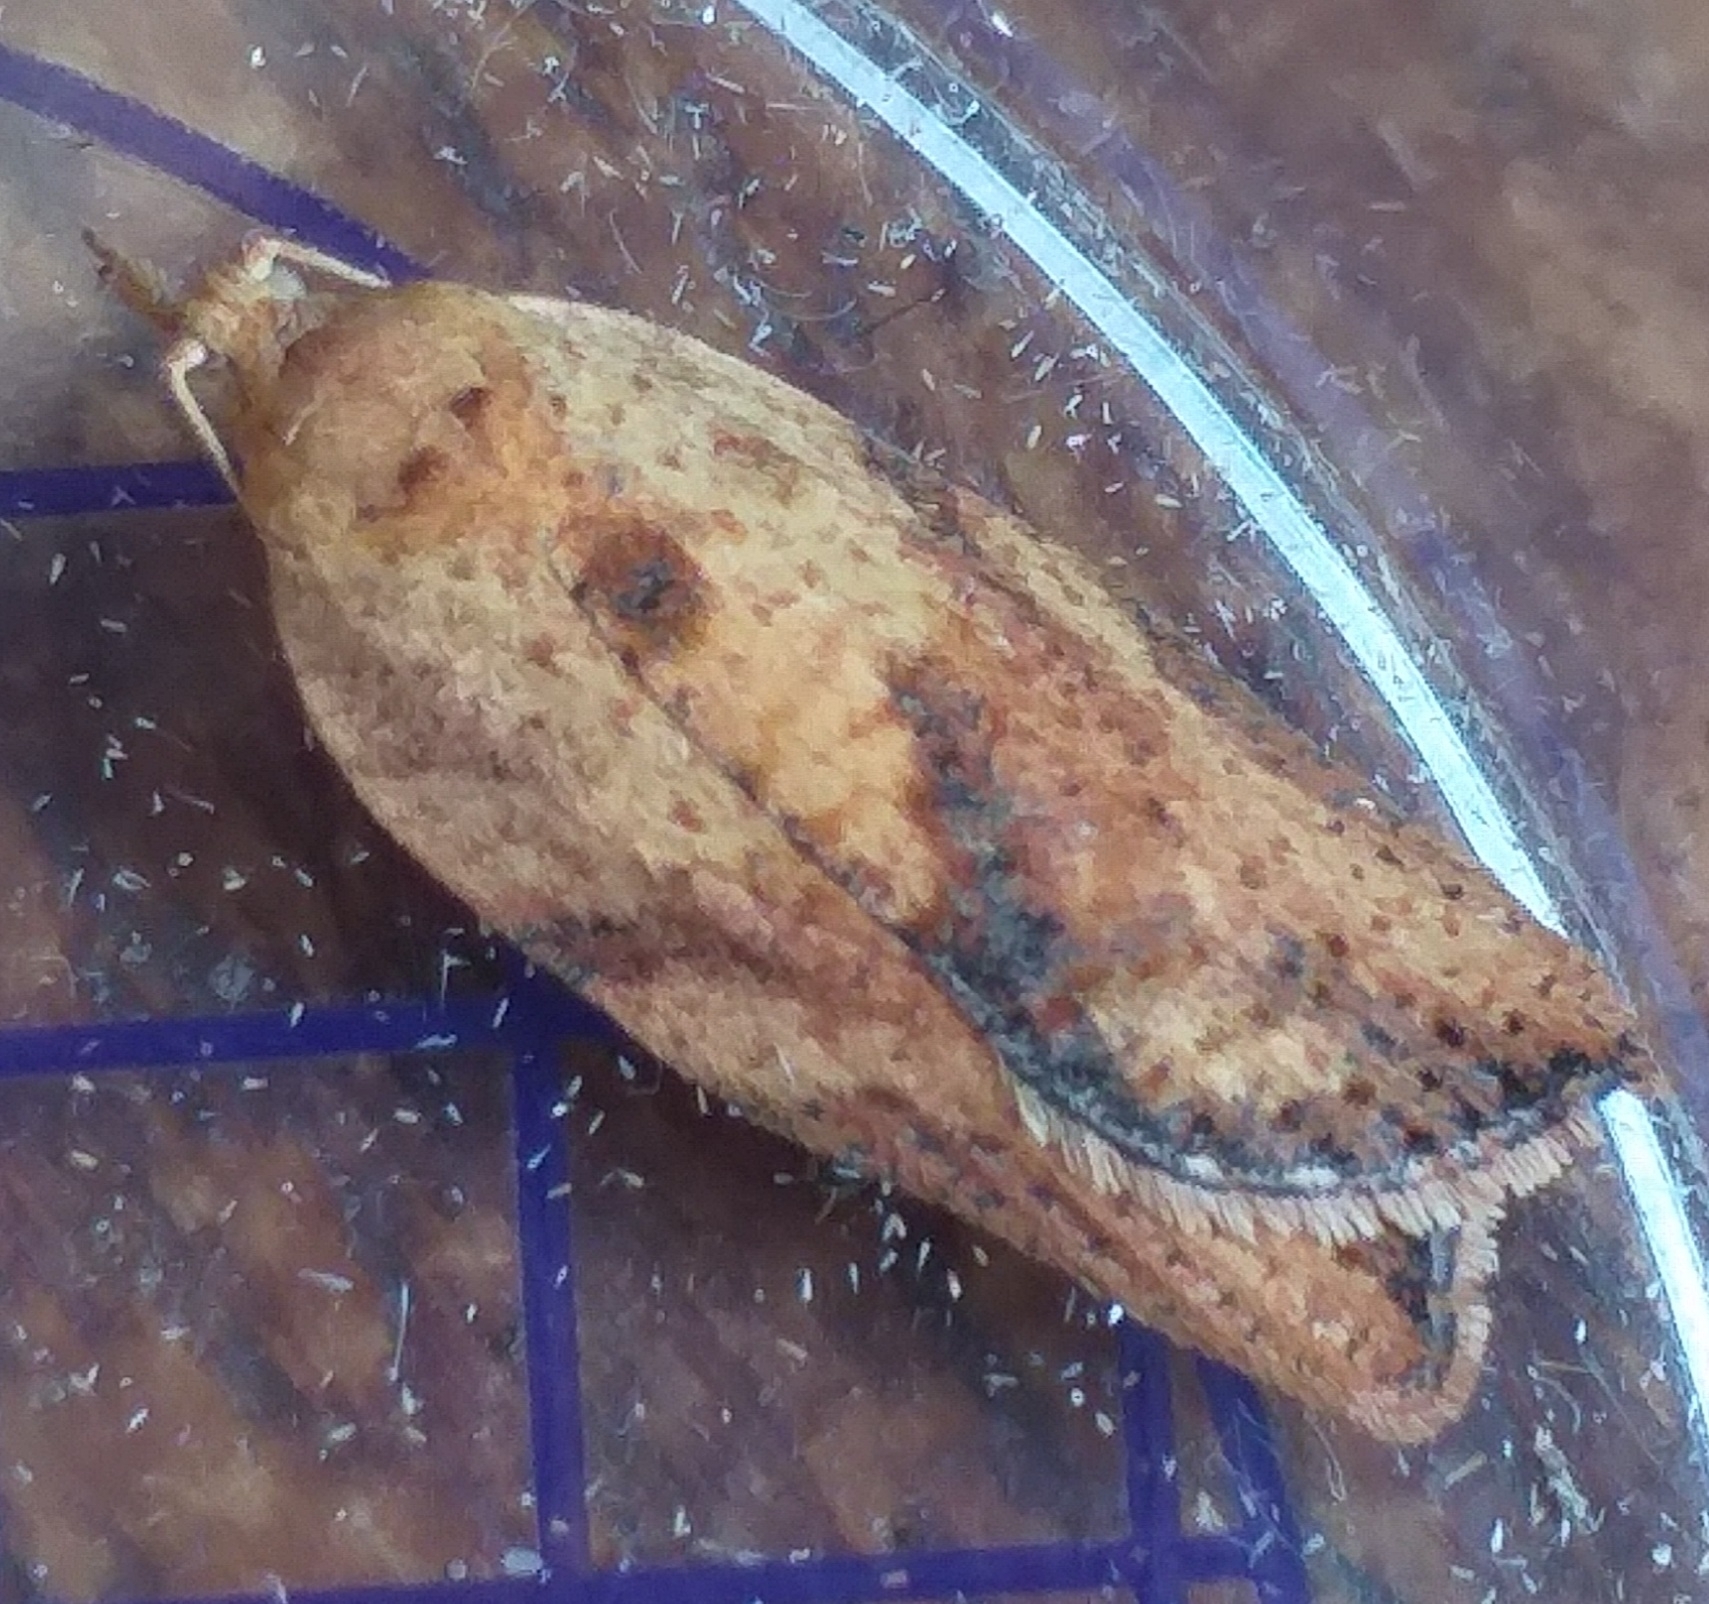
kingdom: Animalia
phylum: Arthropoda
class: Insecta
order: Lepidoptera
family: Tortricidae
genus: Epiphyas
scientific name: Epiphyas postvittana
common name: Light brown apple moth
